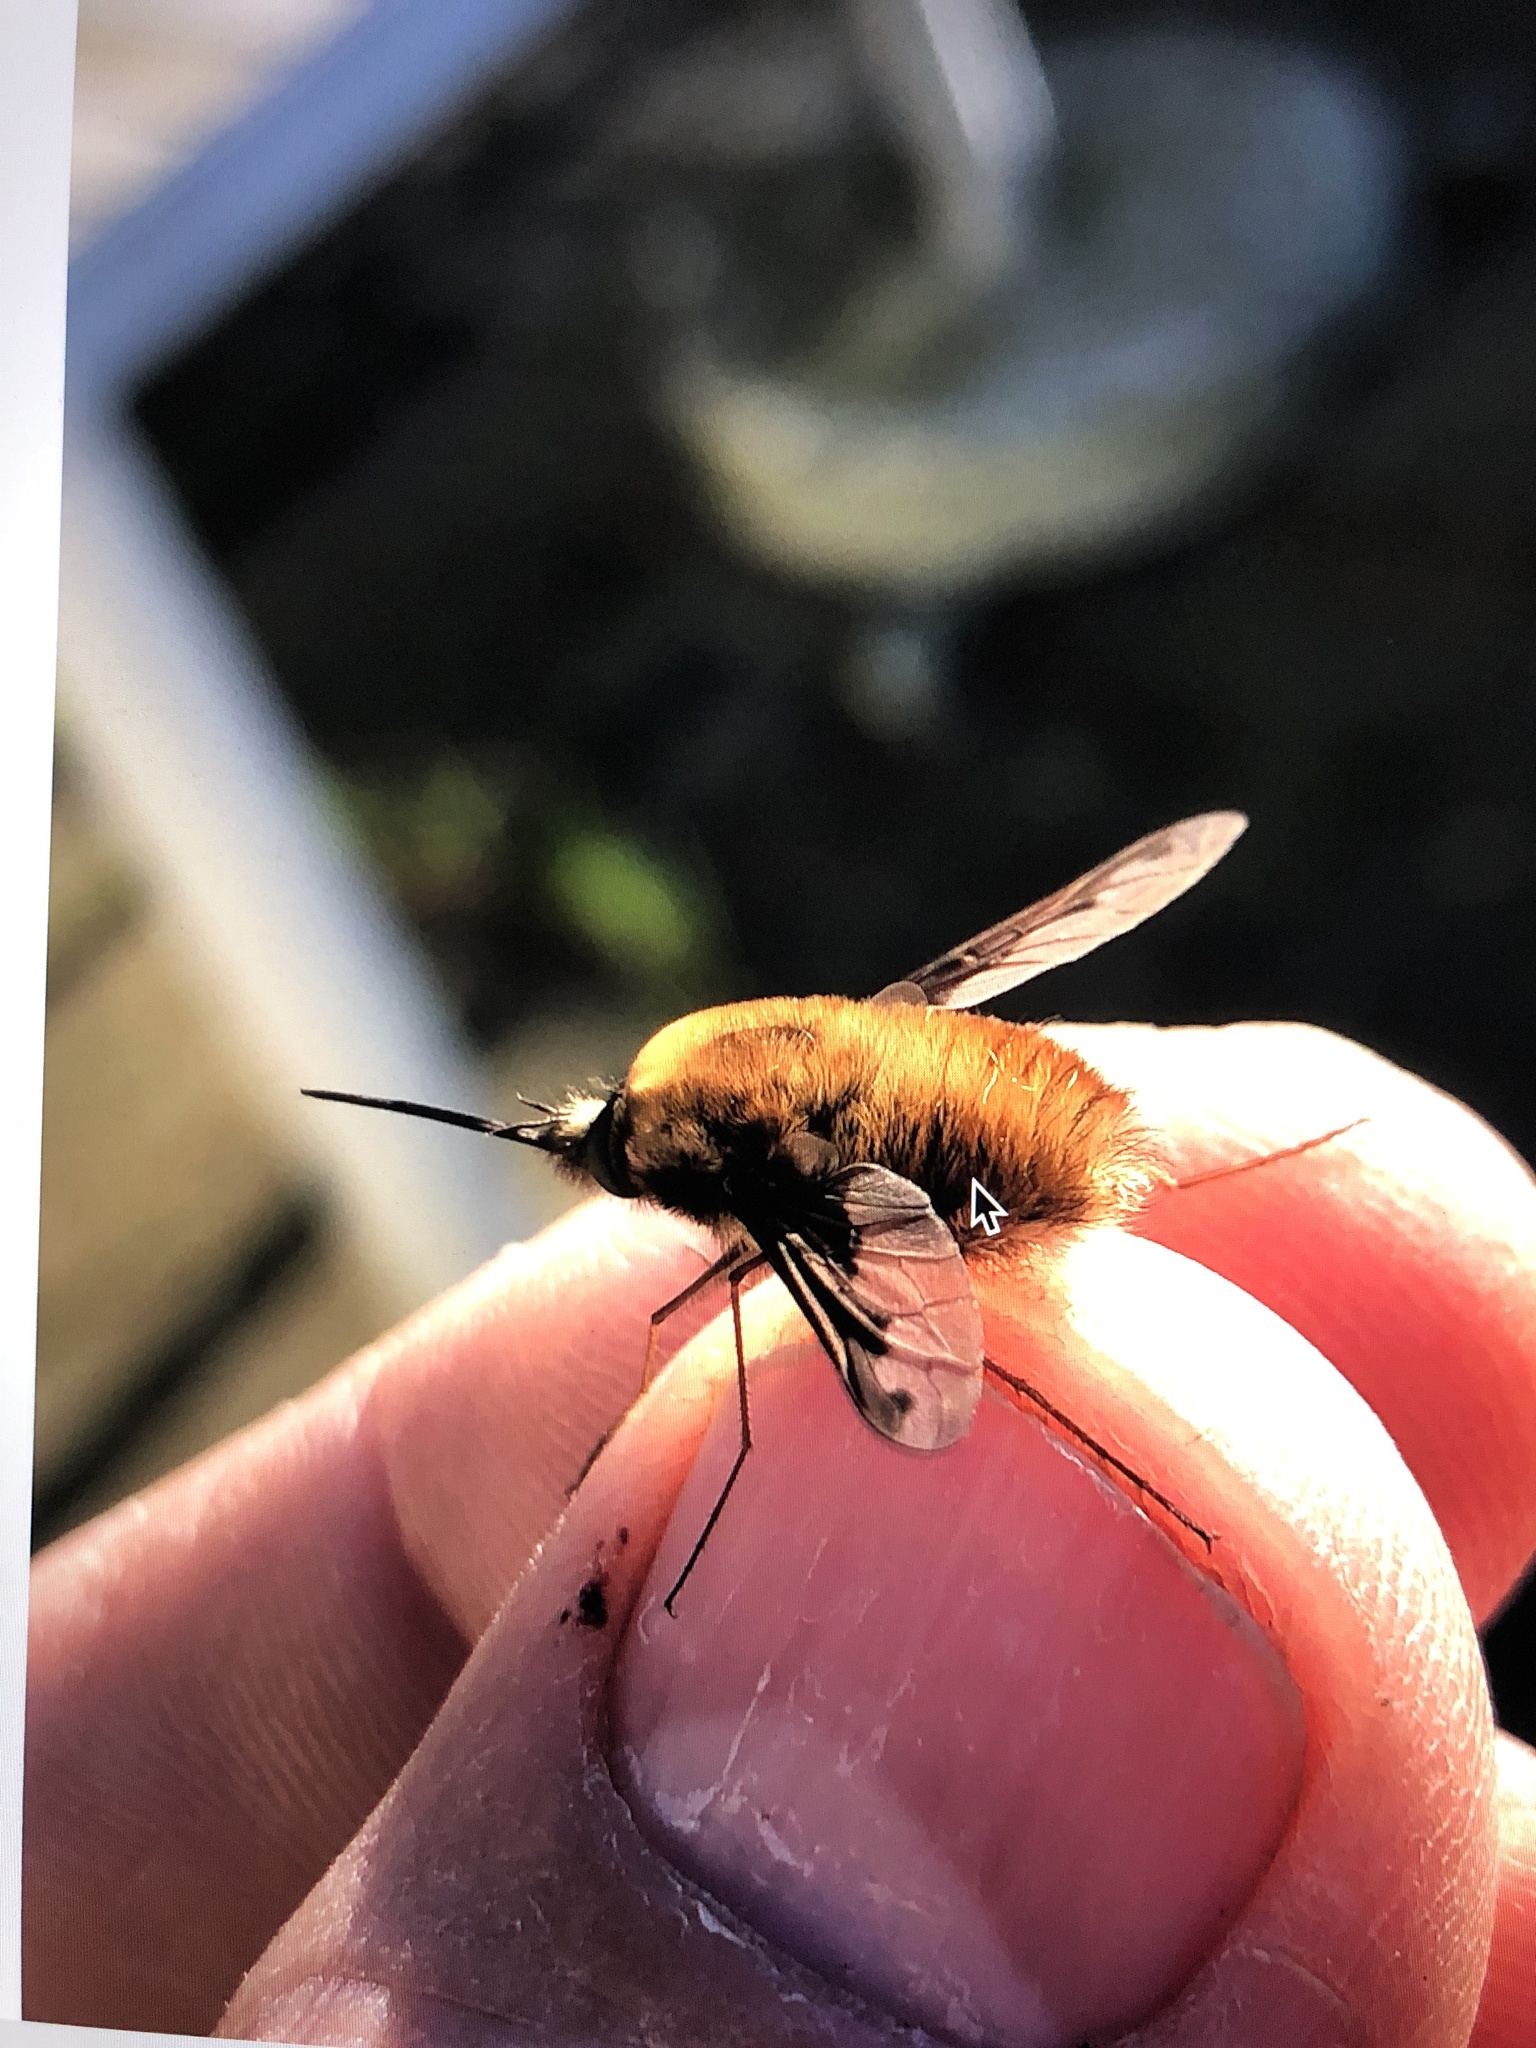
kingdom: Animalia
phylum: Arthropoda
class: Insecta
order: Diptera
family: Bombyliidae
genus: Bombylius
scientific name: Bombylius major
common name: Bee fly
